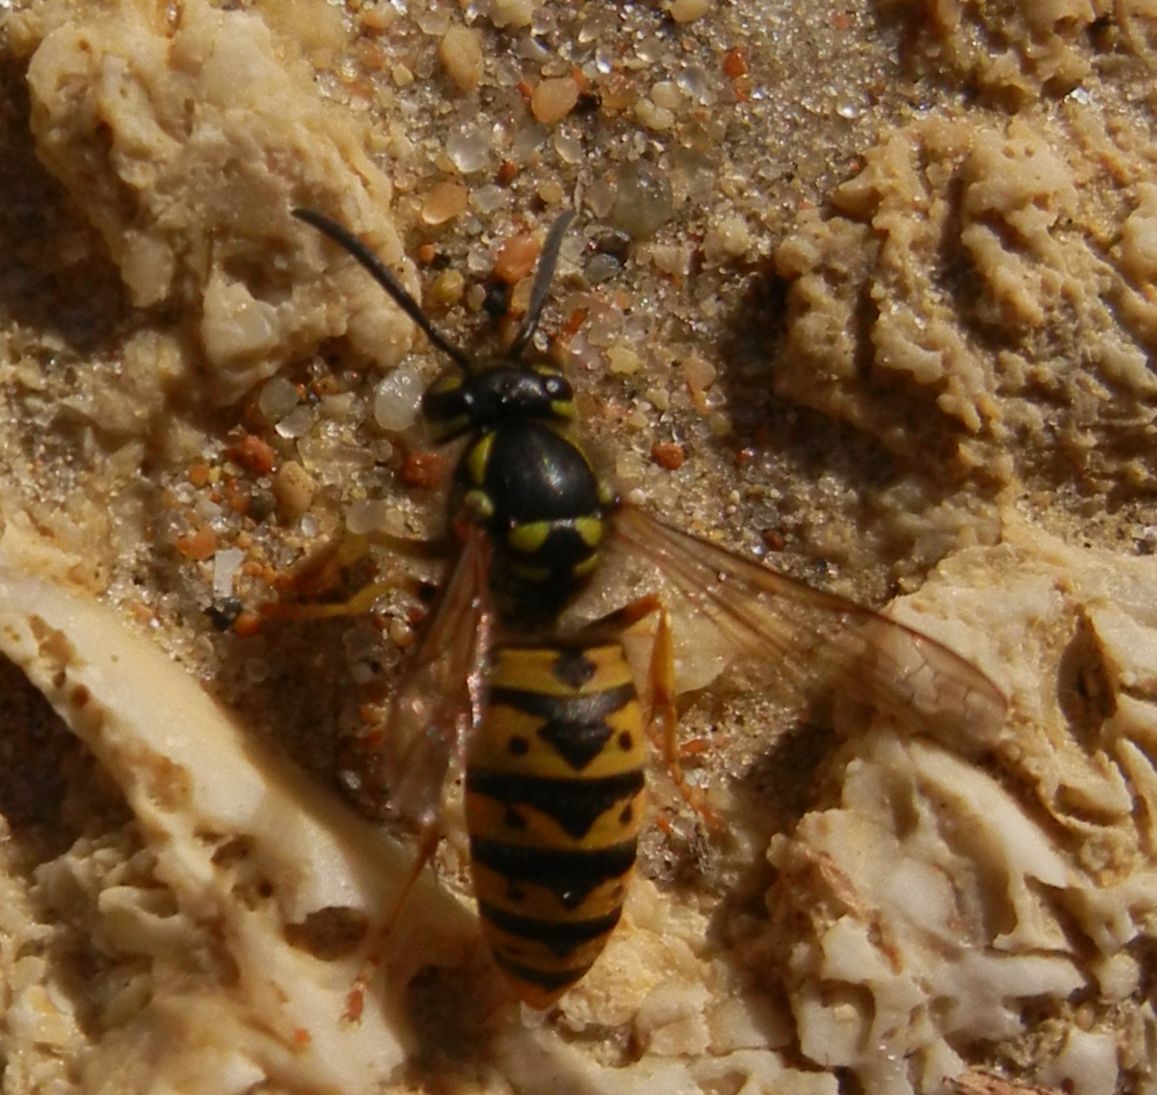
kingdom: Animalia
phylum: Arthropoda
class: Insecta
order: Hymenoptera
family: Vespidae
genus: Vespula
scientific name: Vespula germanica
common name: German wasp
